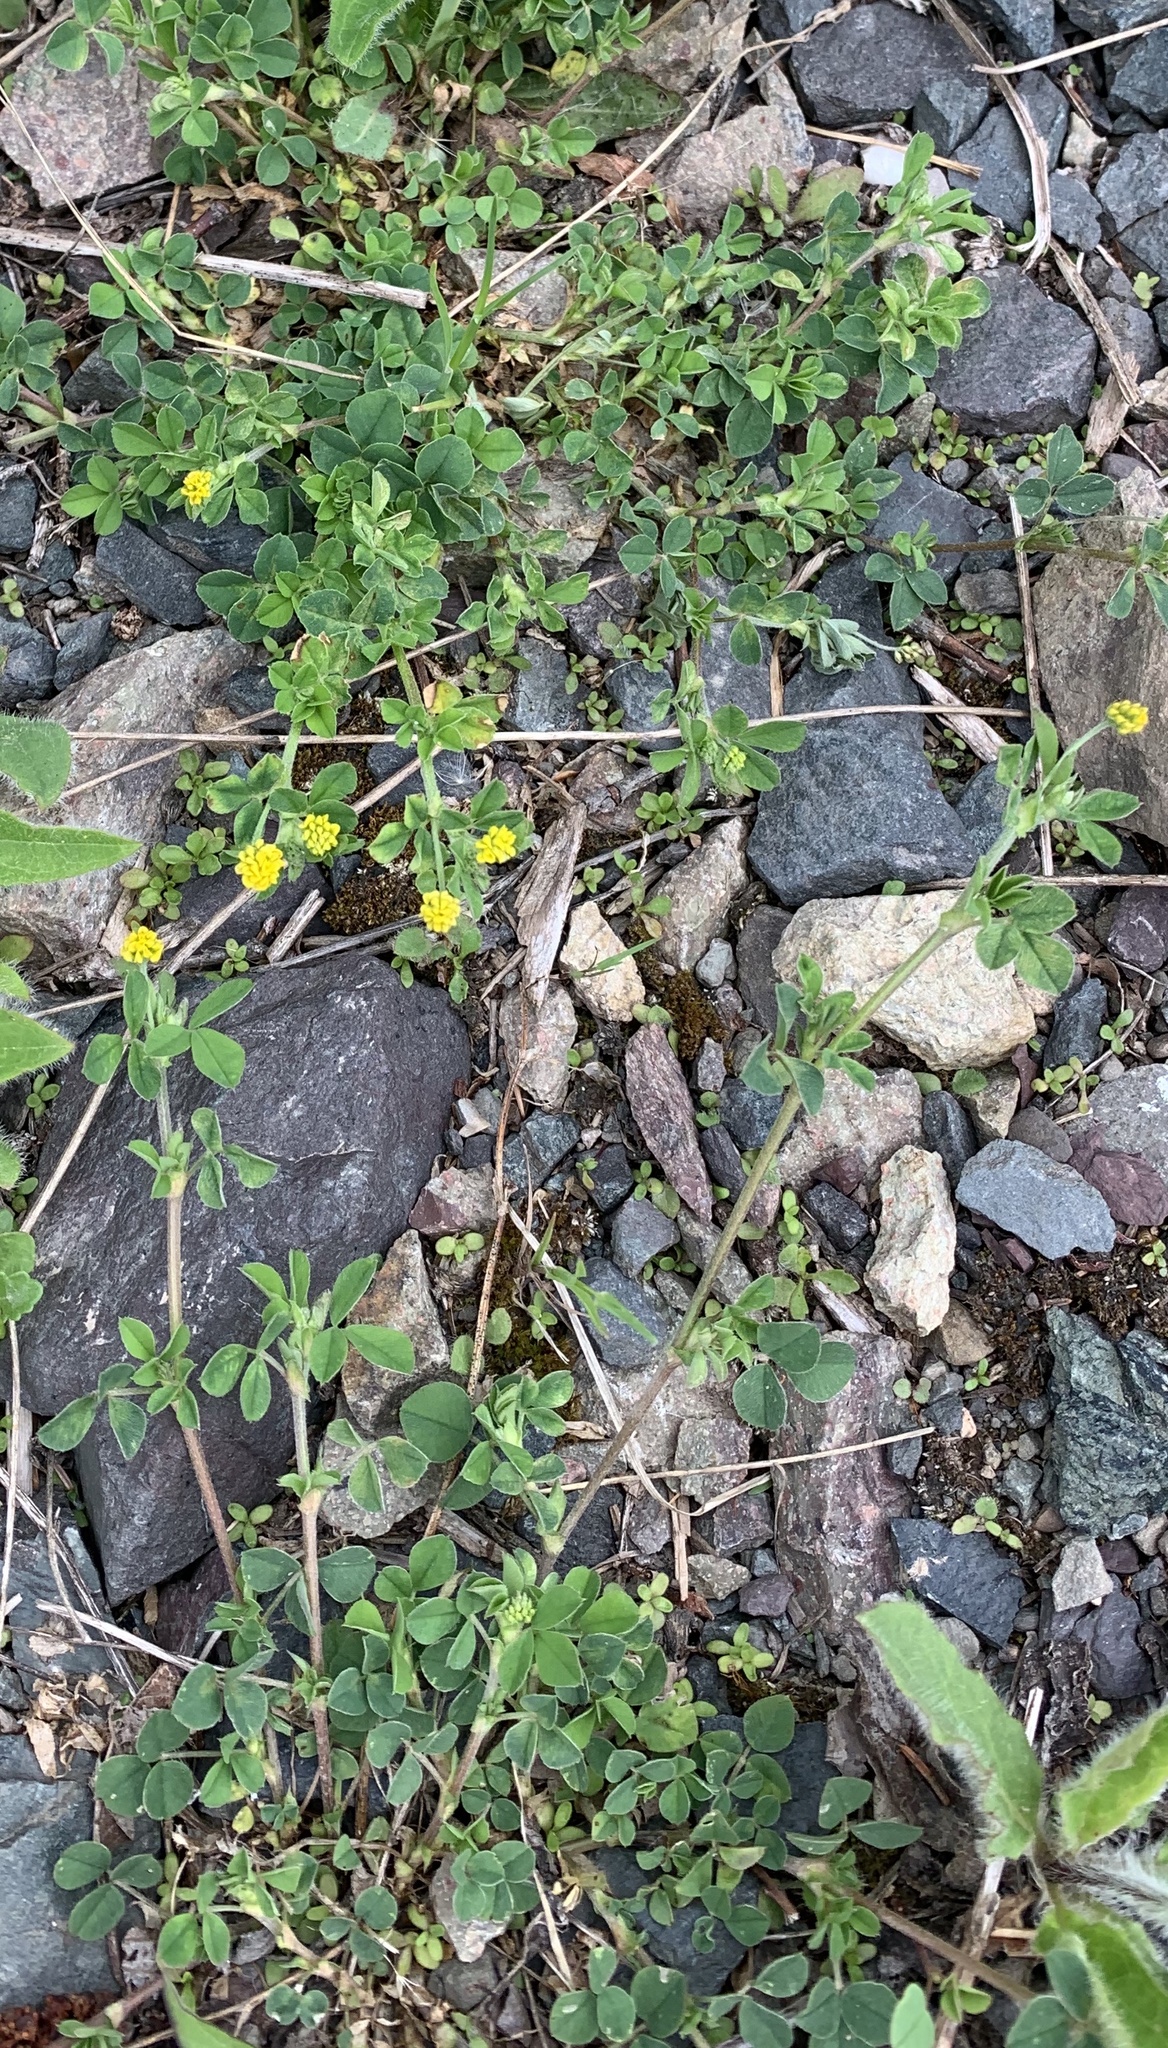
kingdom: Plantae
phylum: Tracheophyta
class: Magnoliopsida
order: Fabales
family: Fabaceae
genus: Medicago
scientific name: Medicago lupulina
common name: Black medick
